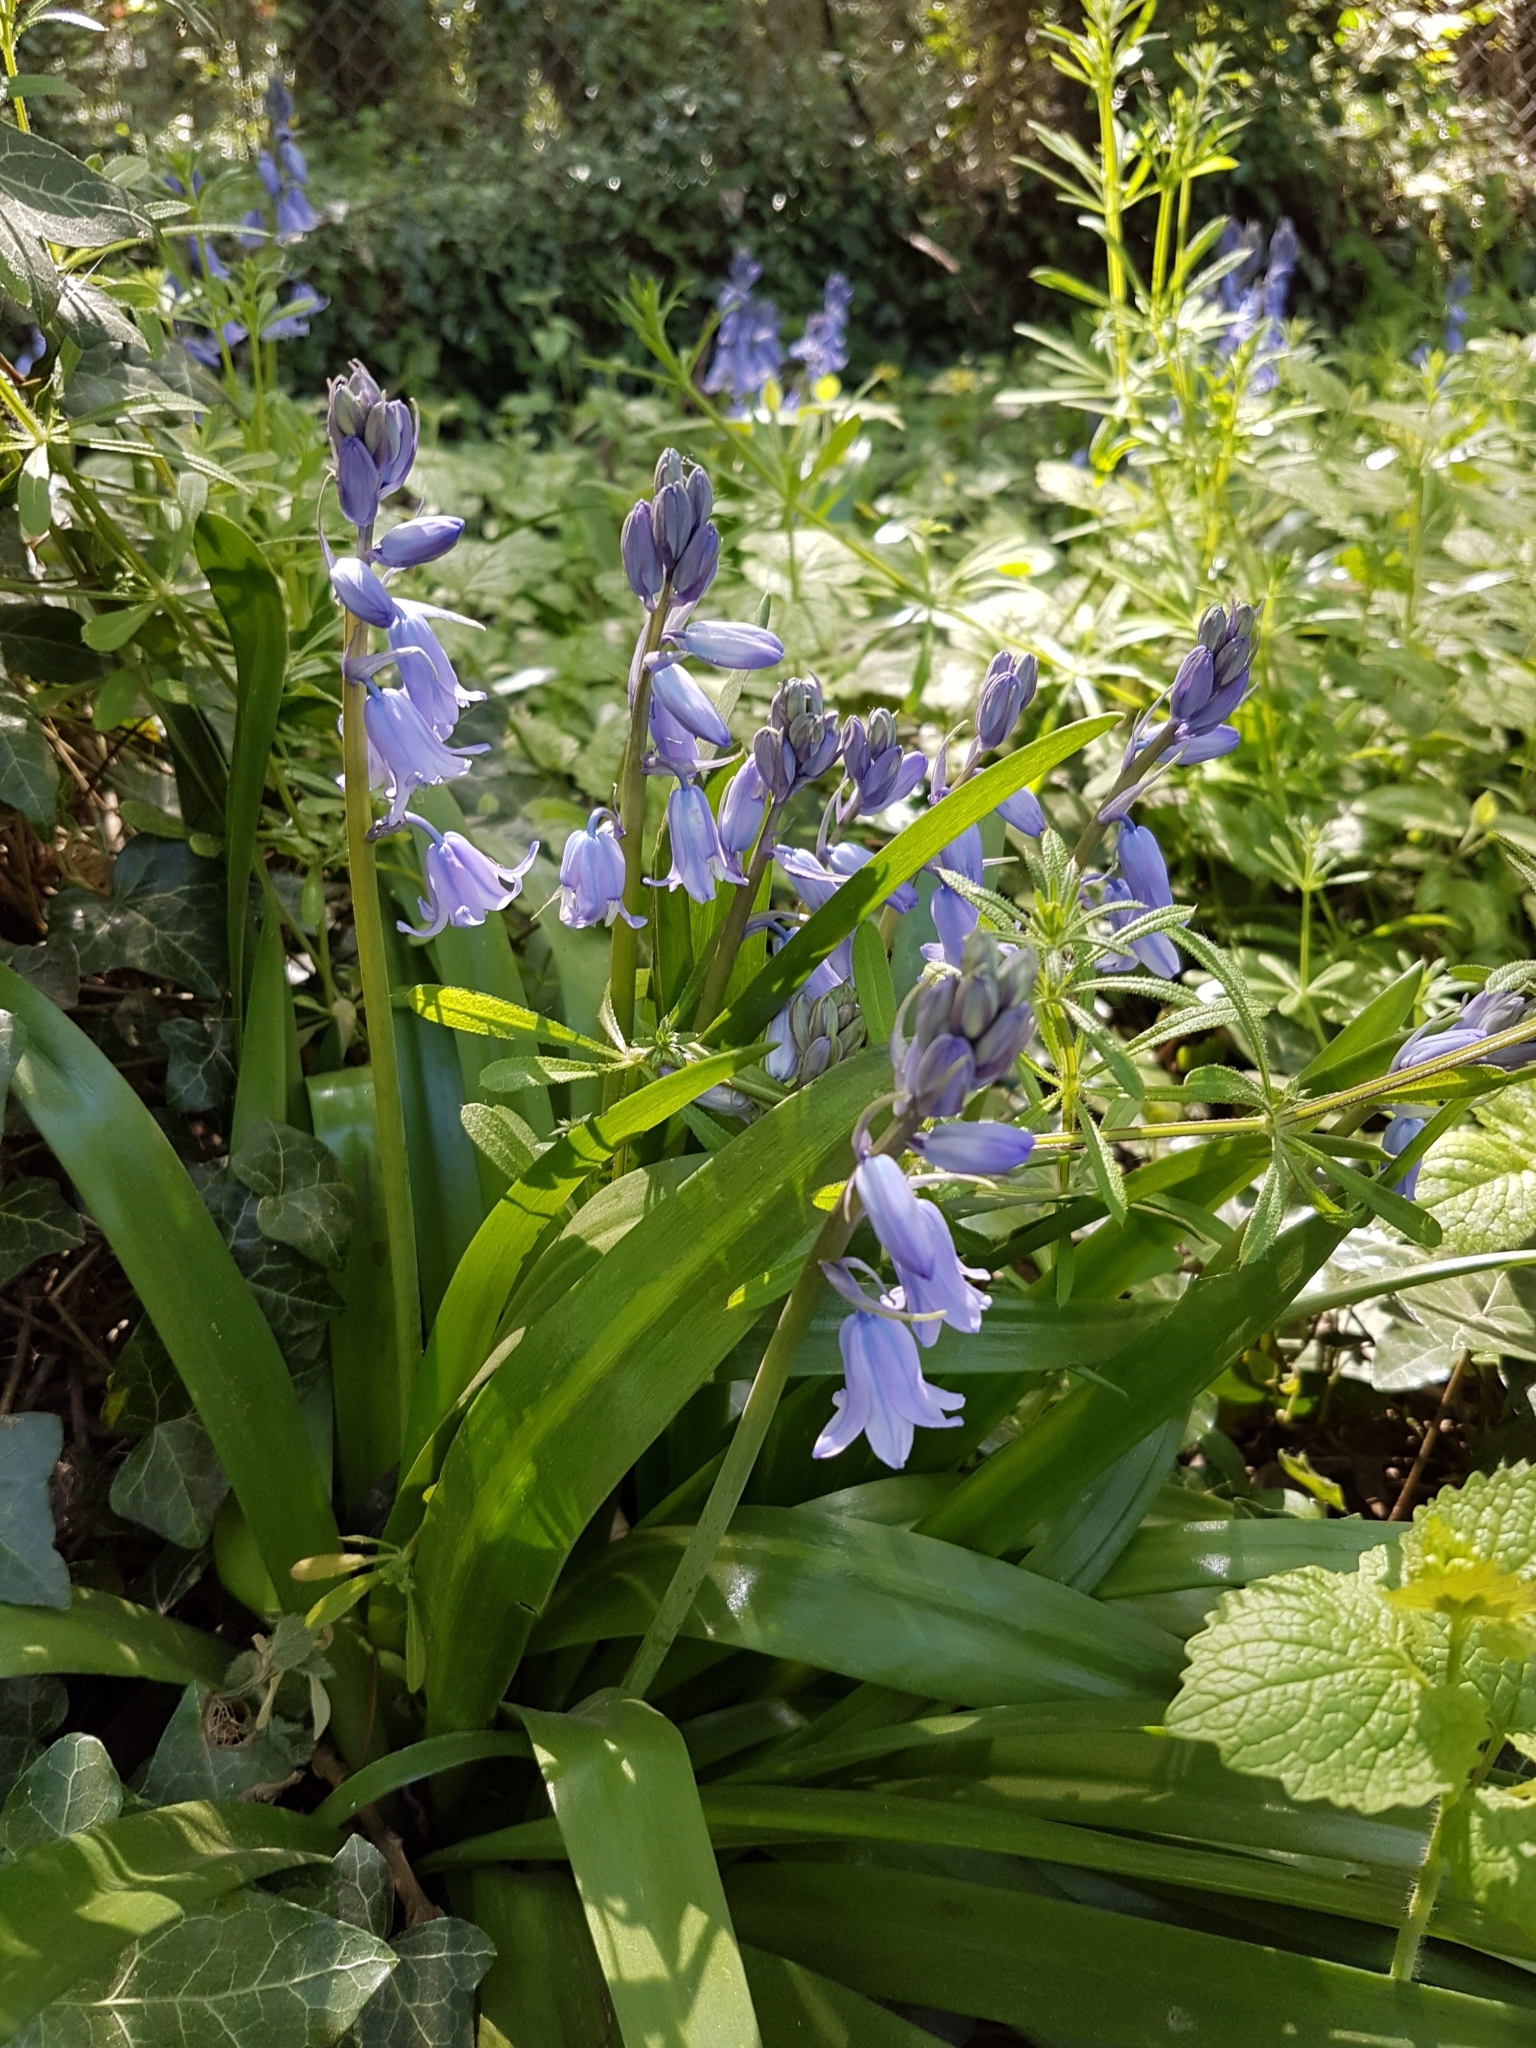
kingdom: Plantae
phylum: Tracheophyta
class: Liliopsida
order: Asparagales
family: Asparagaceae
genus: Hyacinthoides
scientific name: Hyacinthoides hispanica
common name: Spanish bluebell
